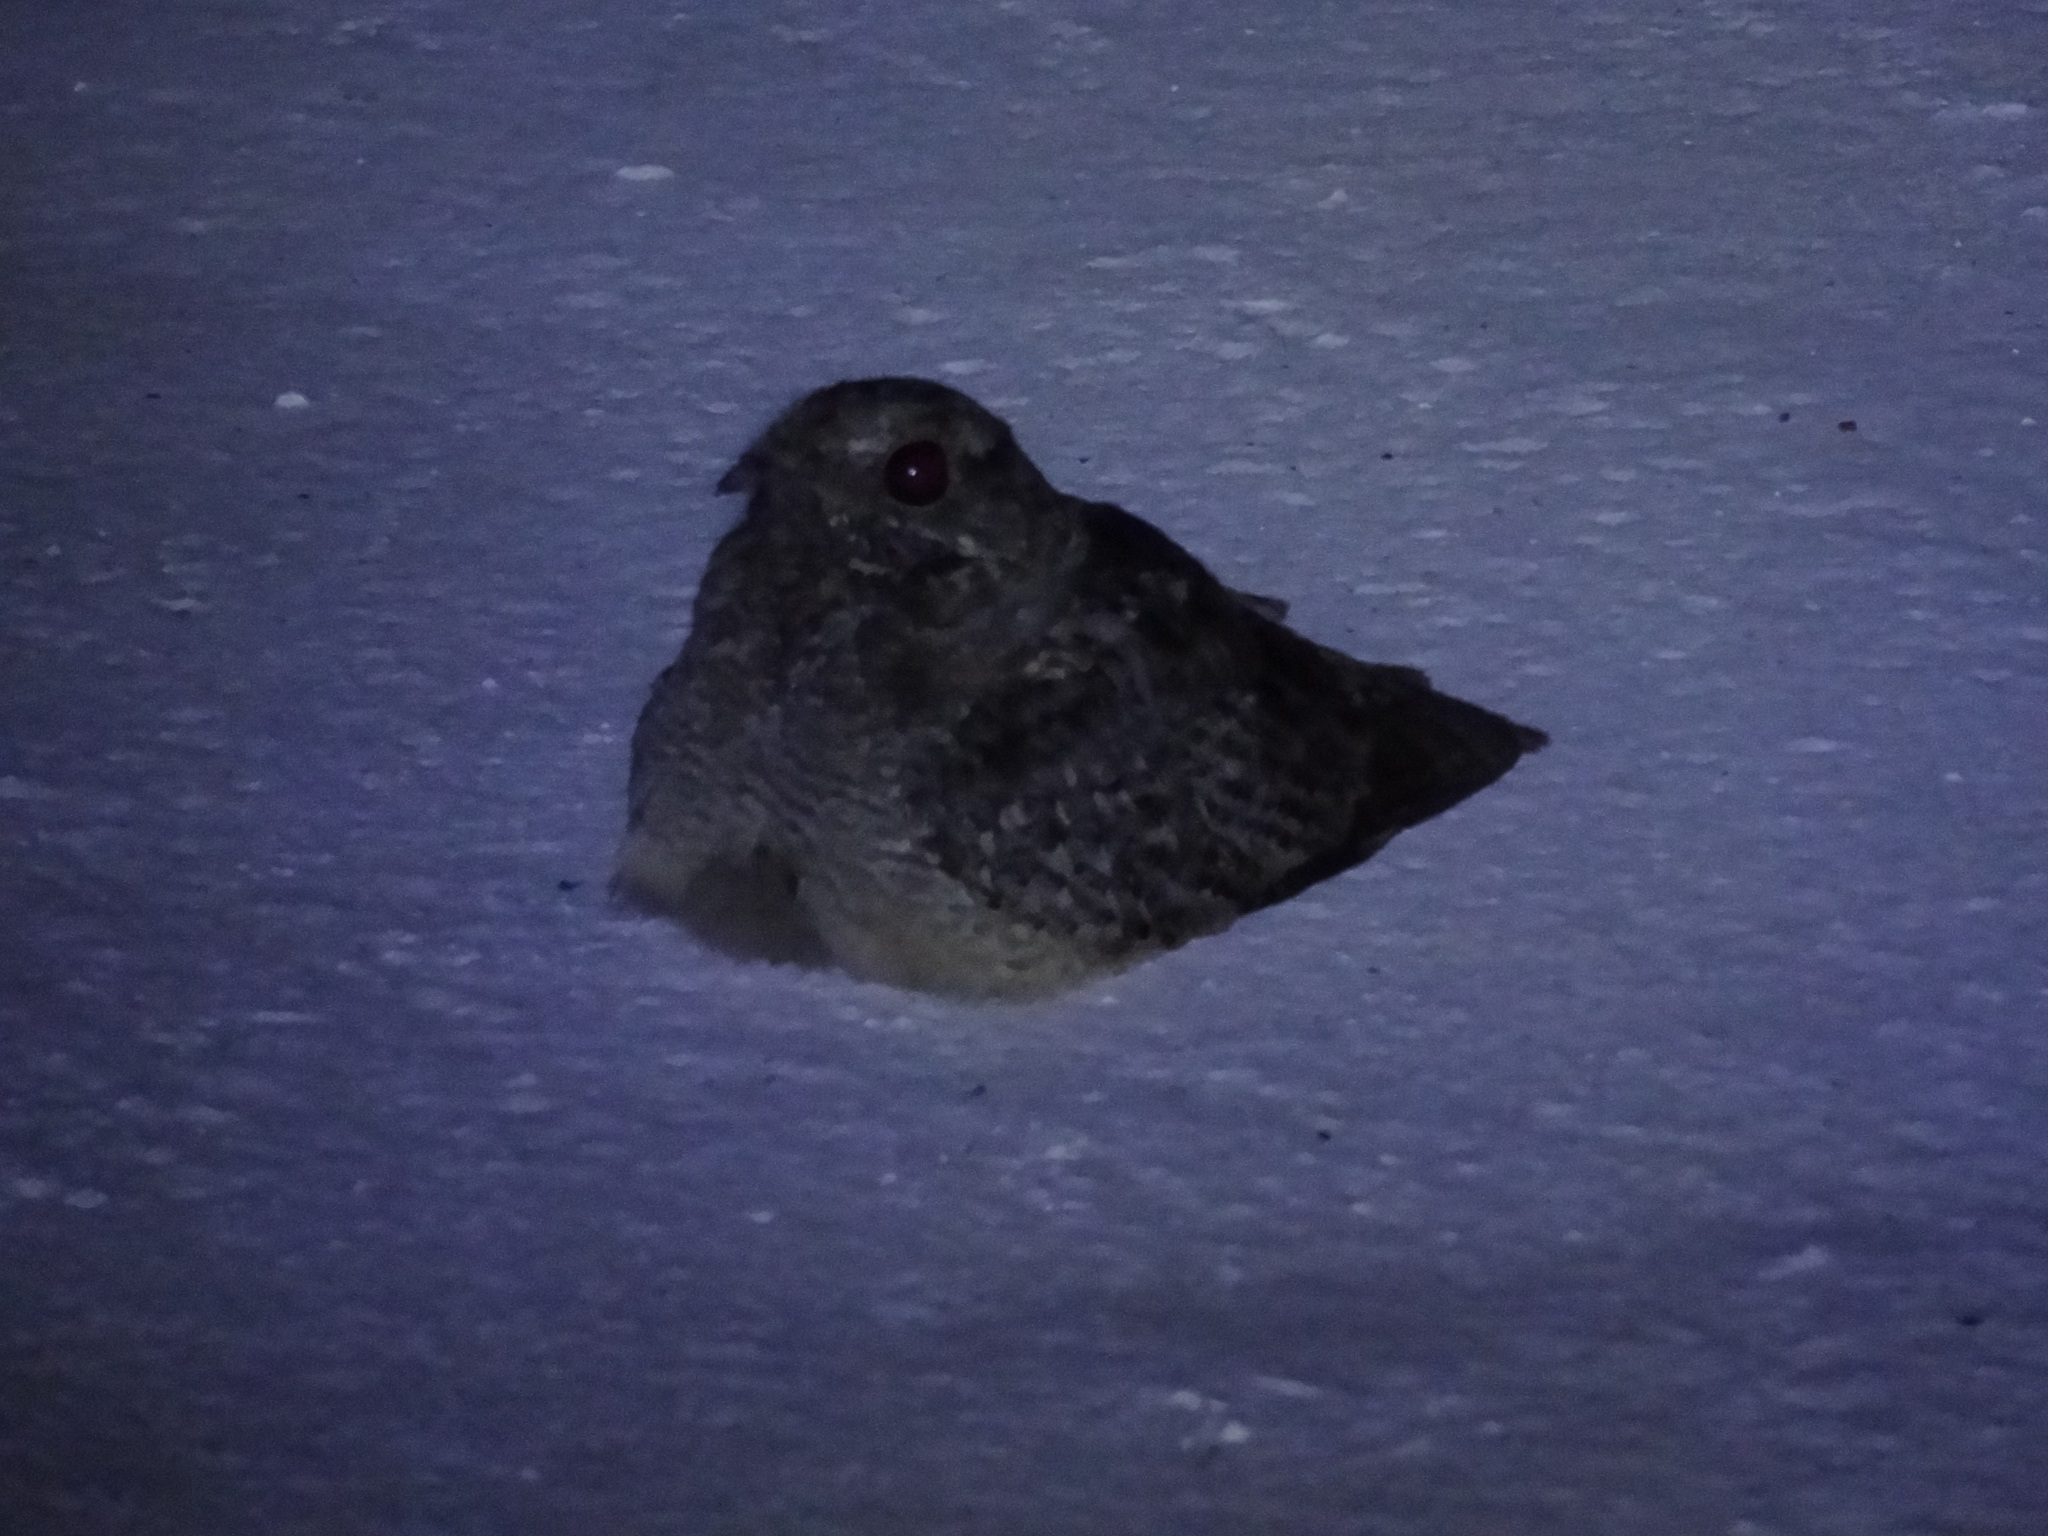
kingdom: Animalia
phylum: Chordata
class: Aves
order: Caprimulgiformes
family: Caprimulgidae
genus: Caprimulgus
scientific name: Caprimulgus affinis
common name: Savanna nightjar
